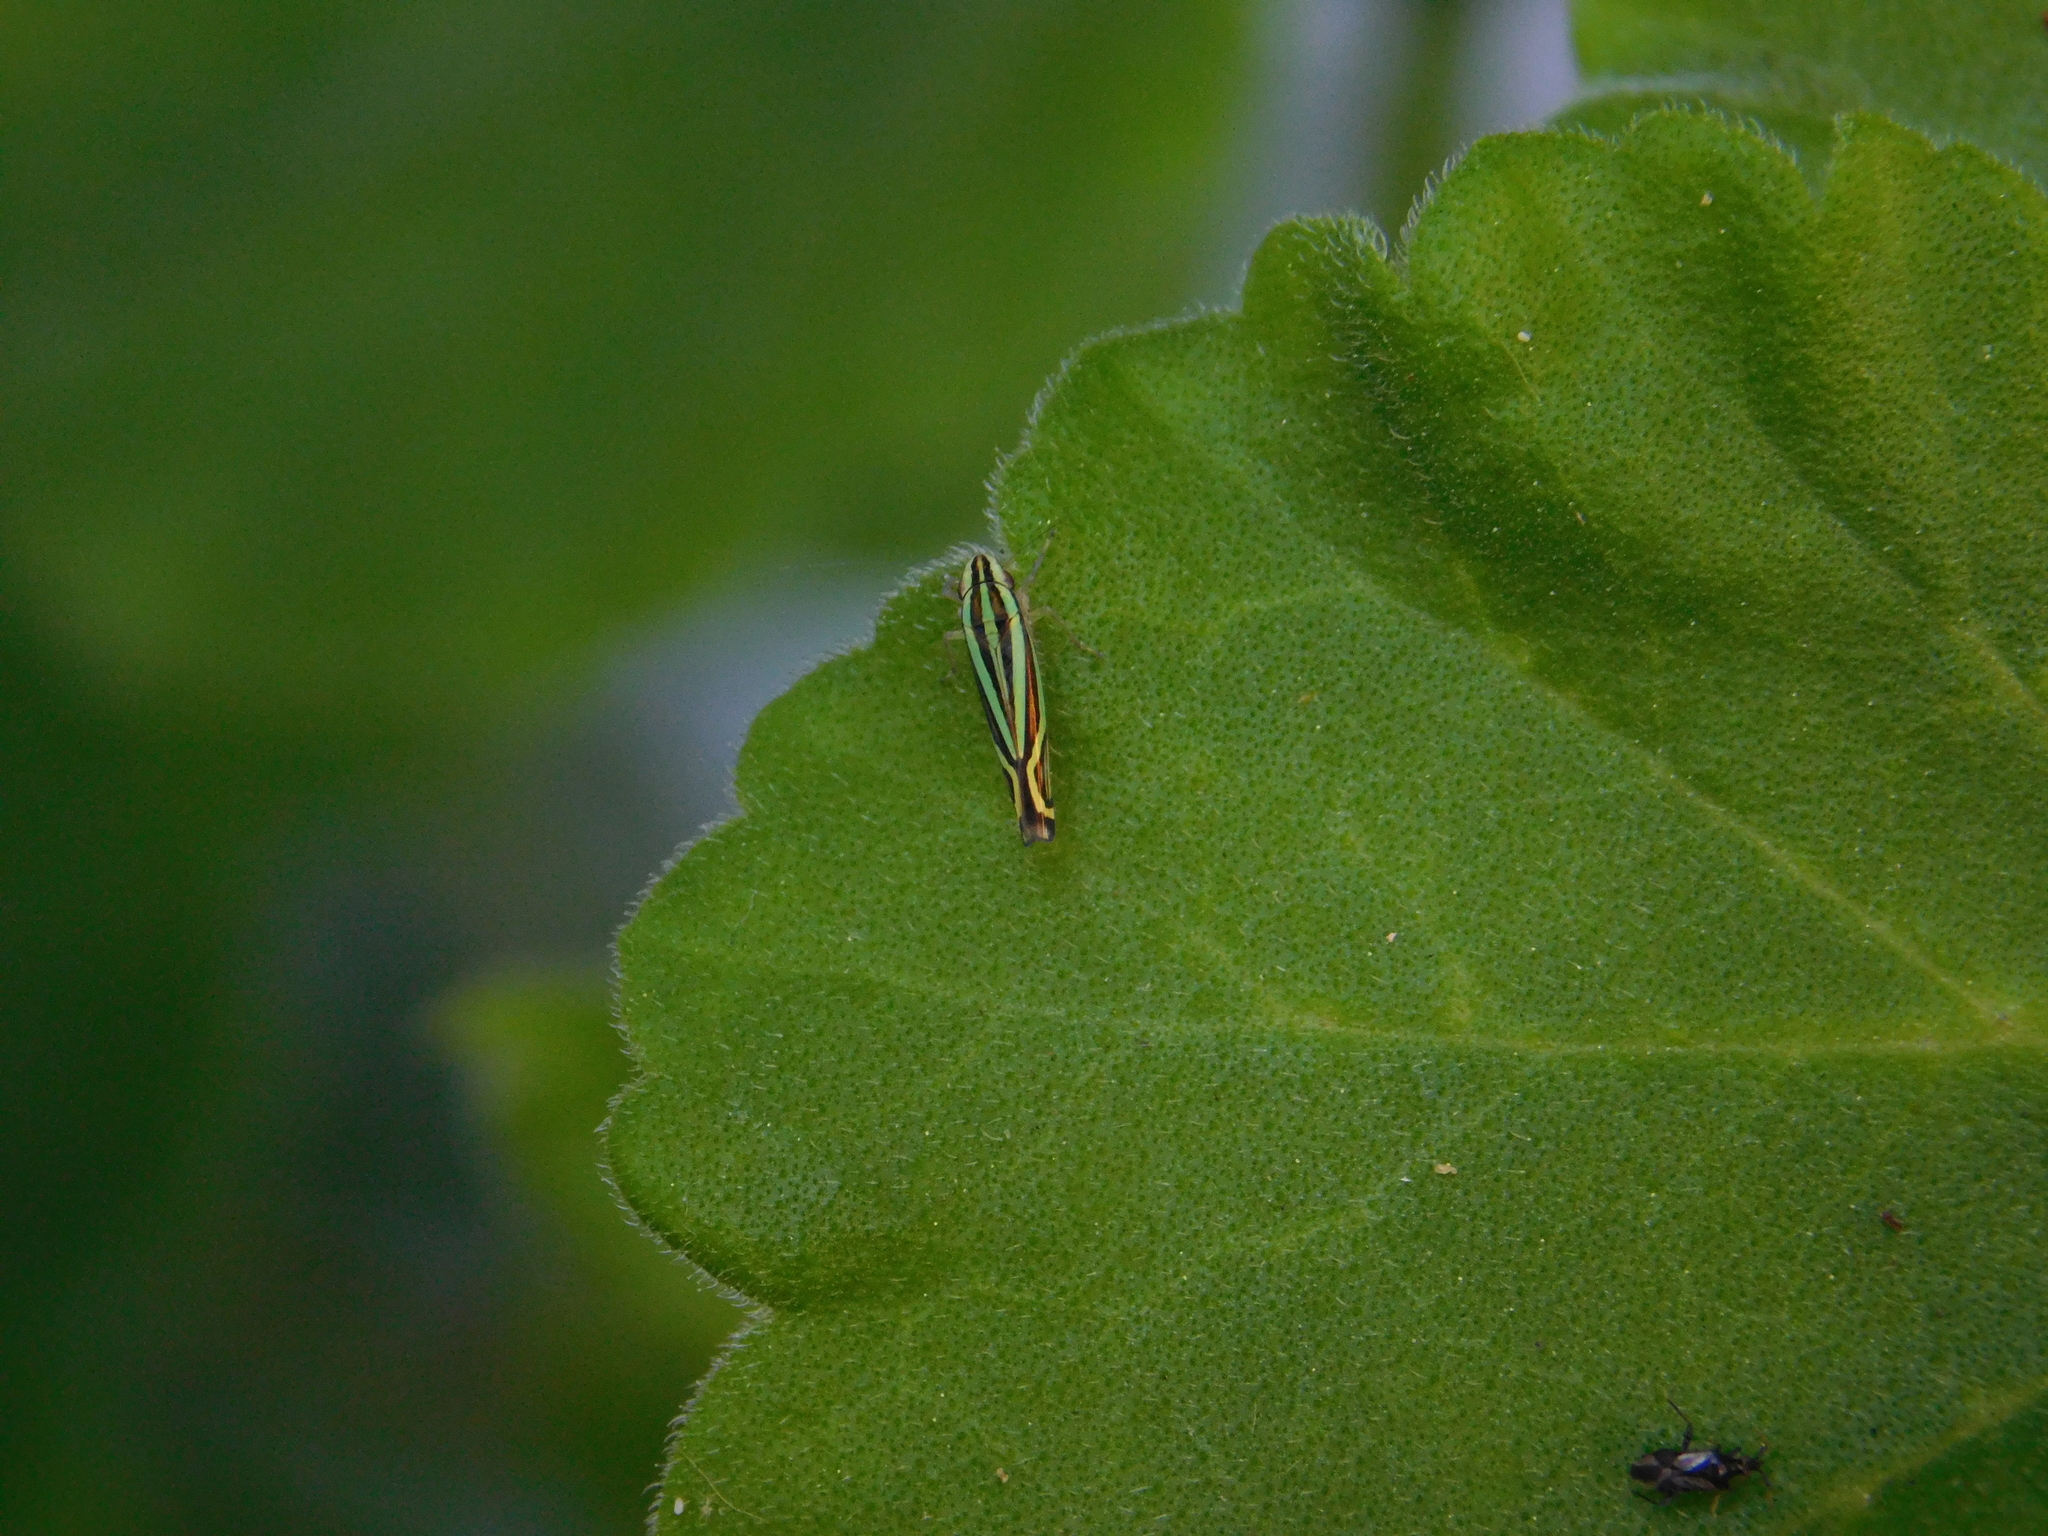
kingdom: Animalia
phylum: Arthropoda
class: Insecta
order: Hemiptera
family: Cicadellidae
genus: Sibovia
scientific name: Sibovia sagata
